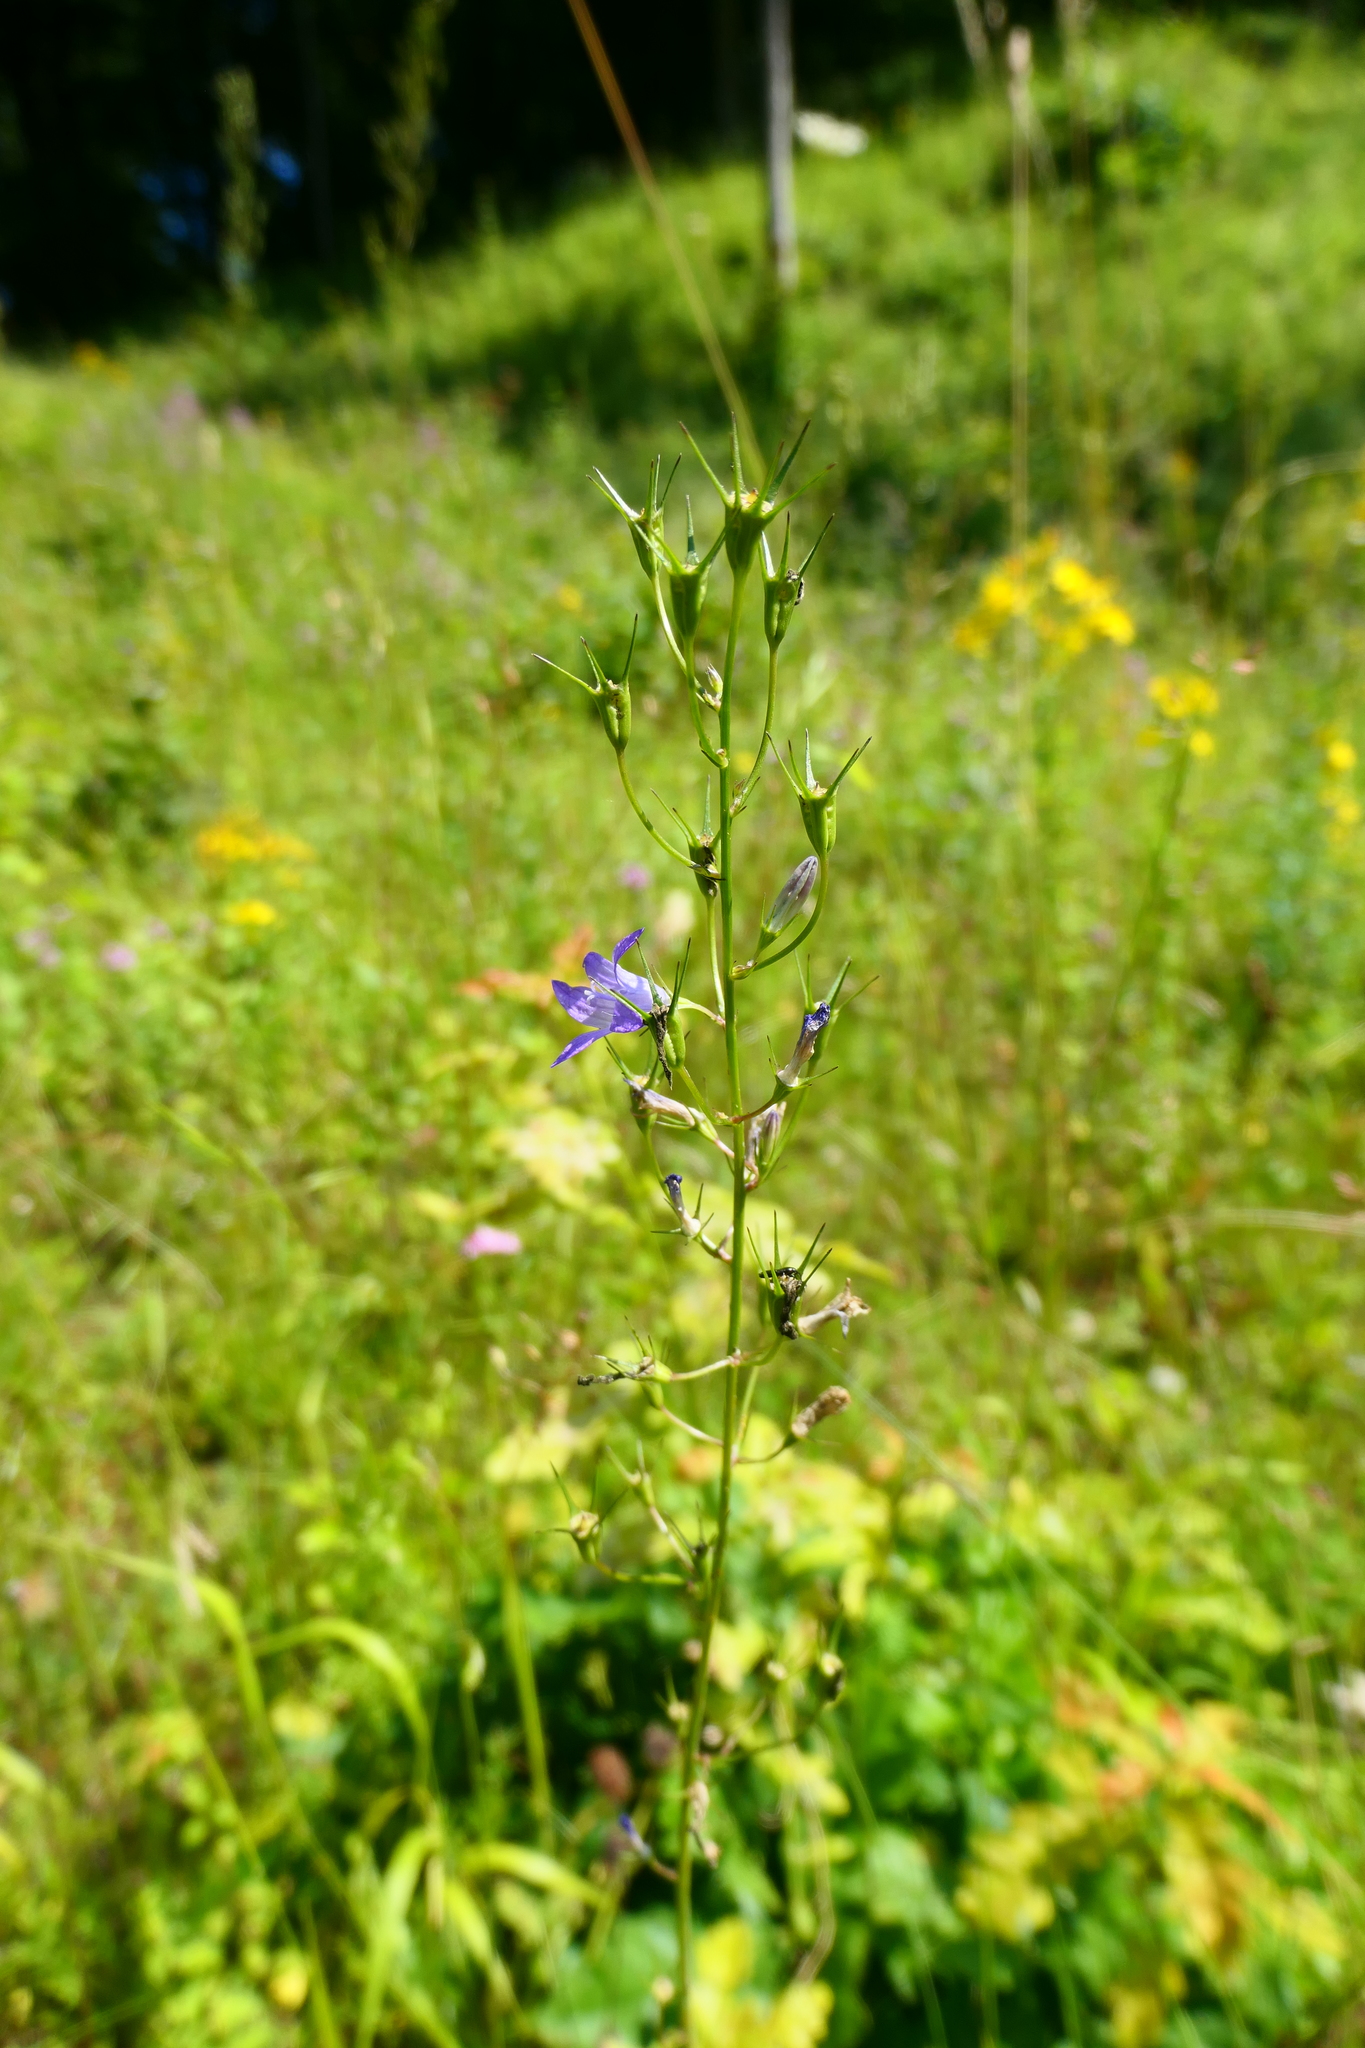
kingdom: Plantae
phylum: Tracheophyta
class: Magnoliopsida
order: Asterales
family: Campanulaceae
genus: Campanula
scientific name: Campanula rapunculus
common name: Rampion bellflower
